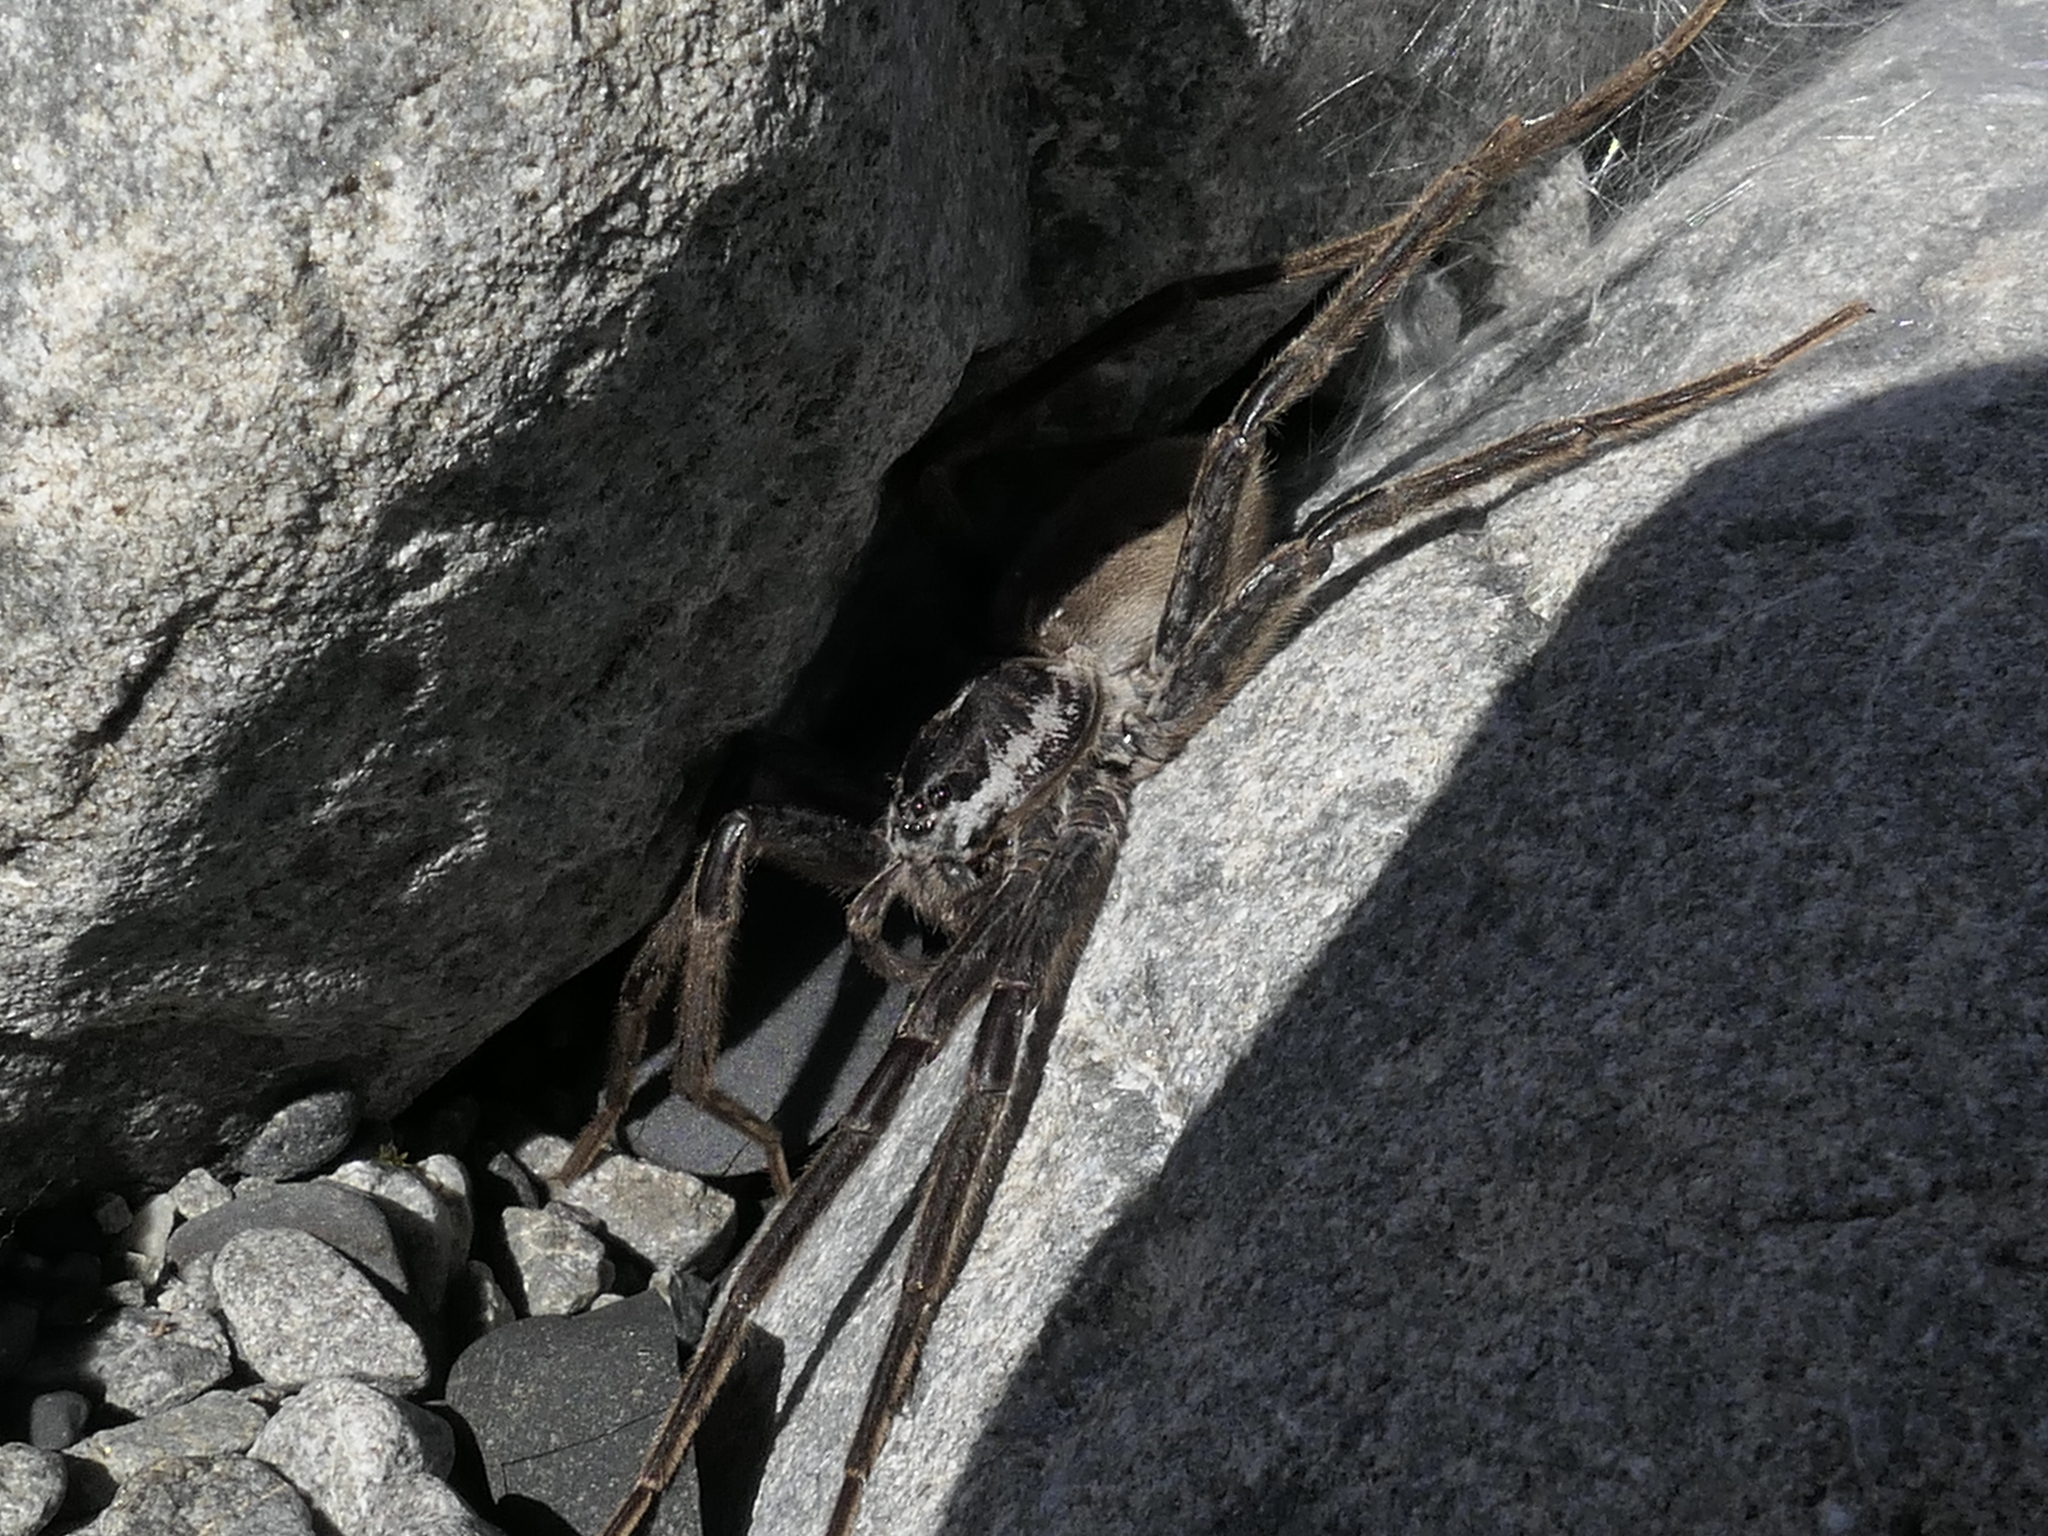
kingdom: Animalia
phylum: Arthropoda
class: Arachnida
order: Araneae
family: Pisauridae
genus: Dolomedes
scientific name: Dolomedes aquaticus
